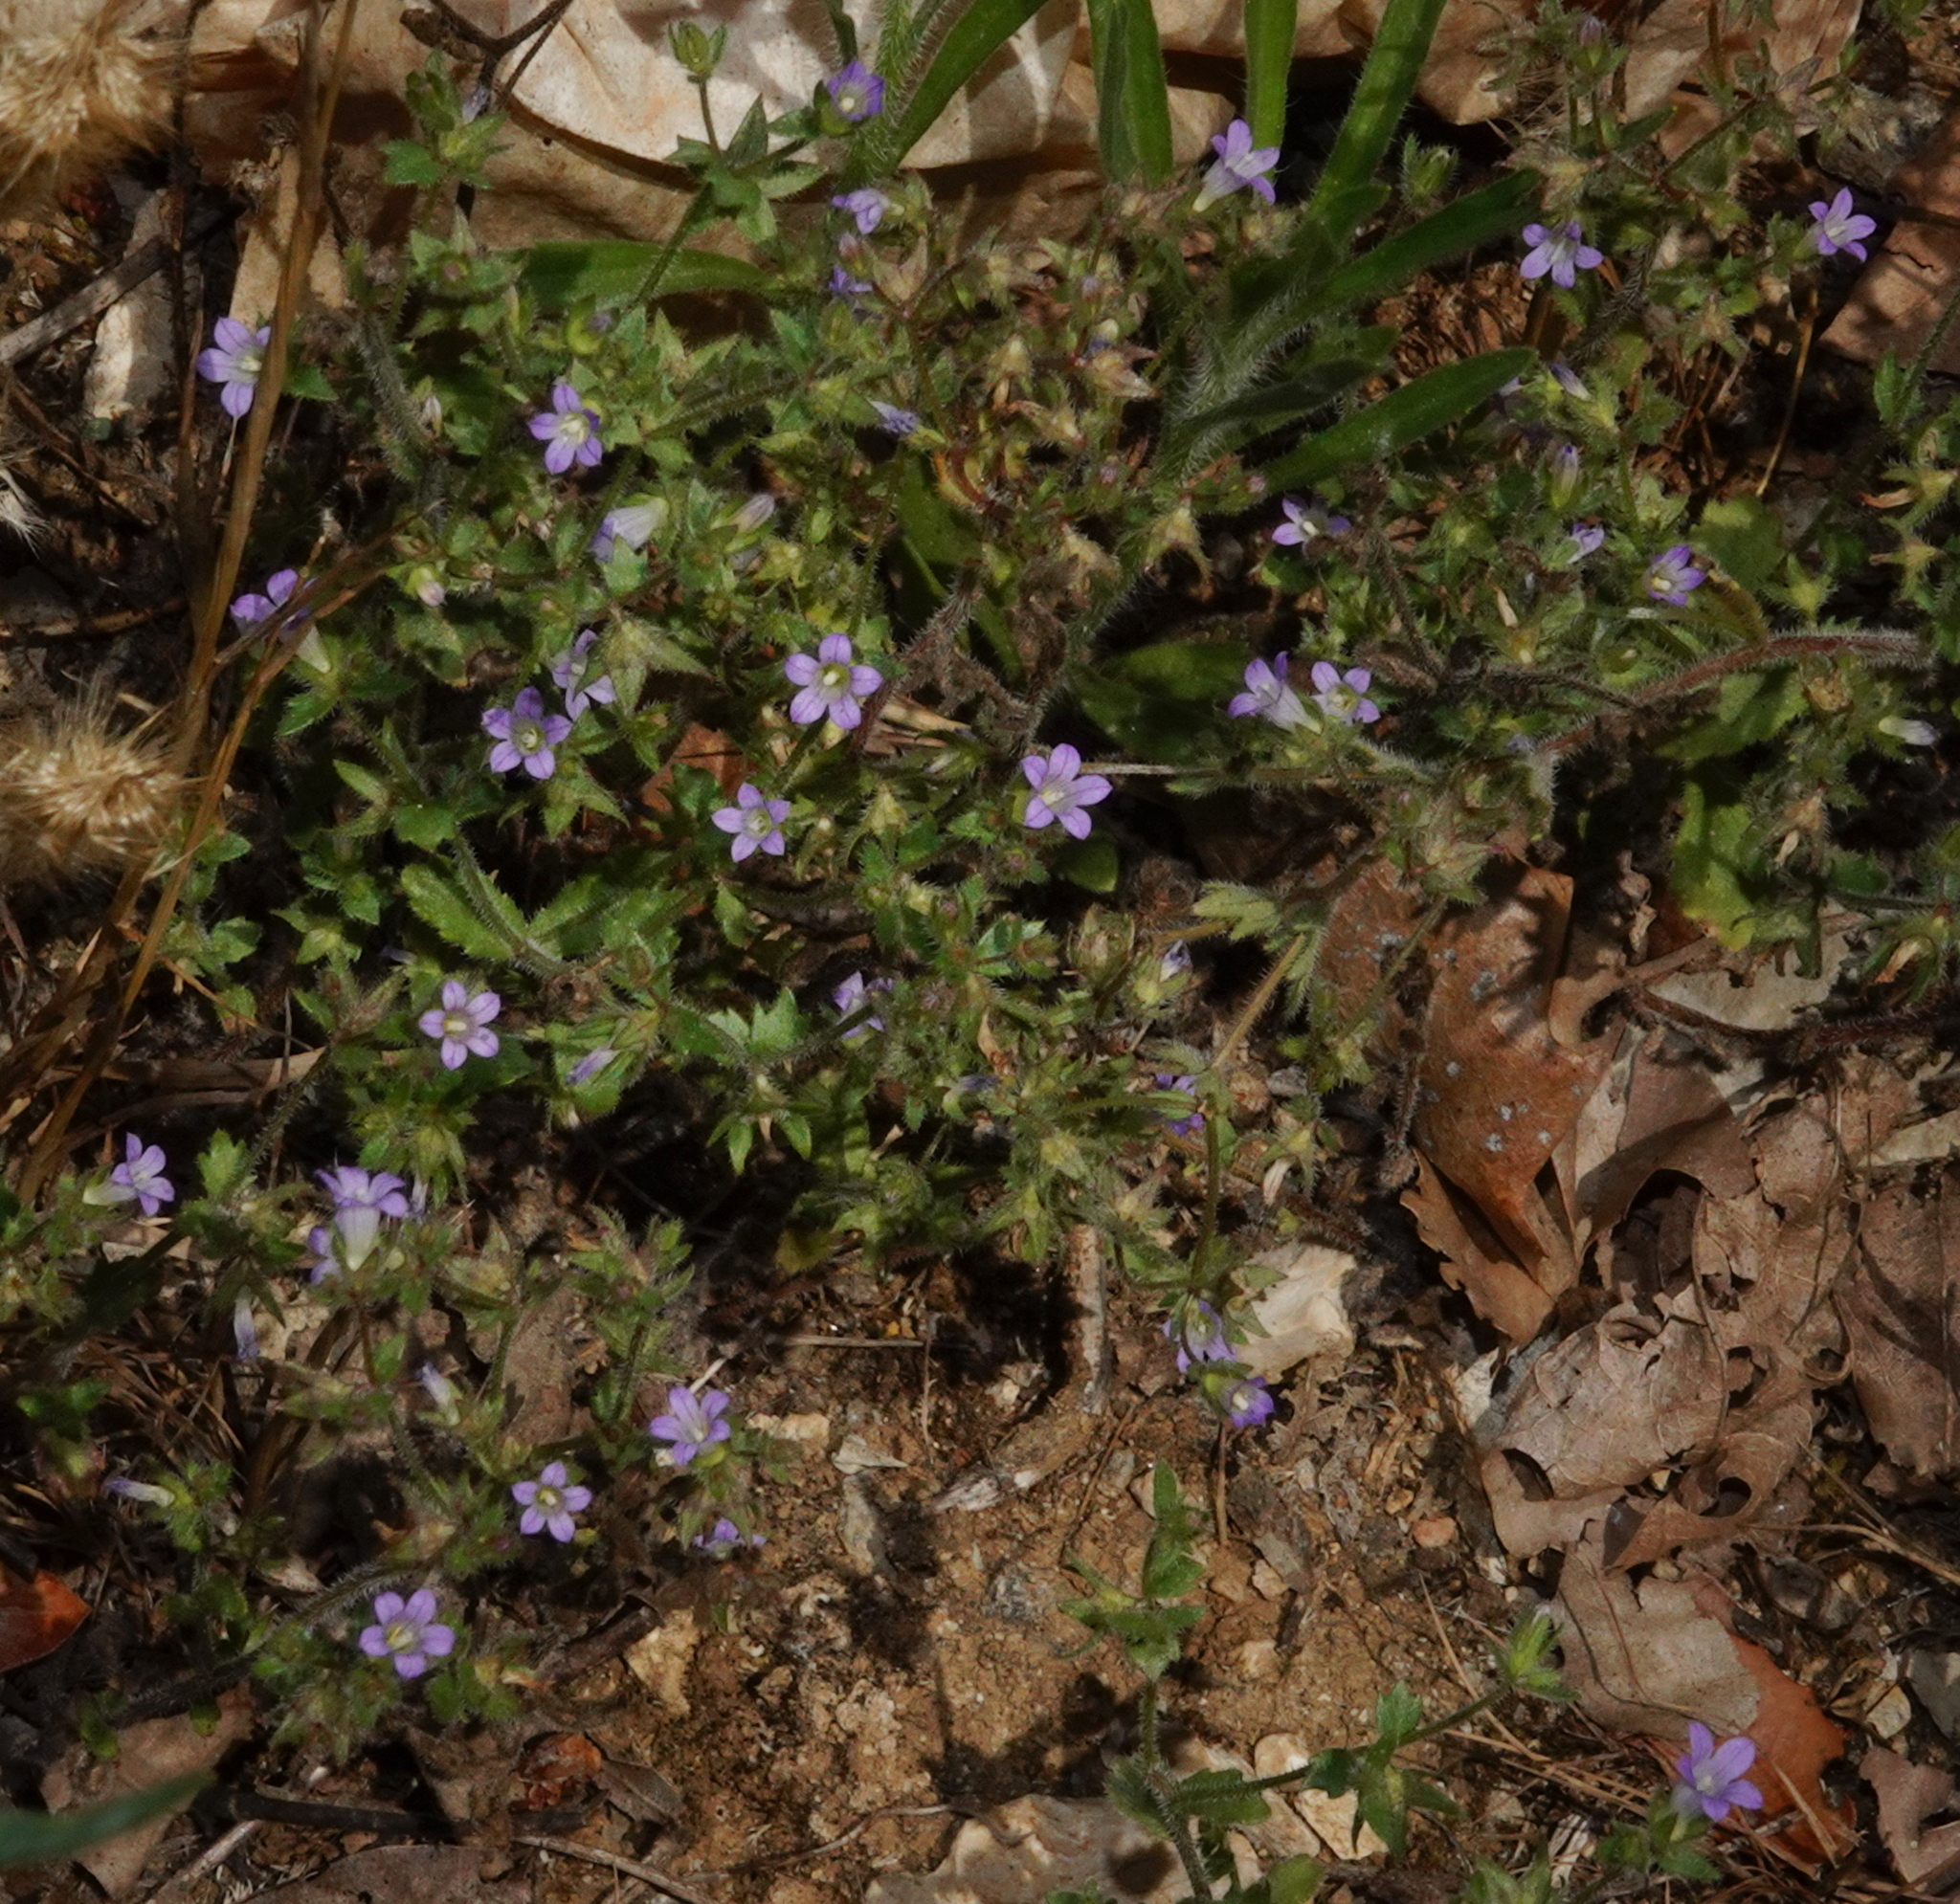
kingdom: Plantae
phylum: Tracheophyta
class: Magnoliopsida
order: Asterales
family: Campanulaceae
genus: Campanula
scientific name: Campanula erinus
